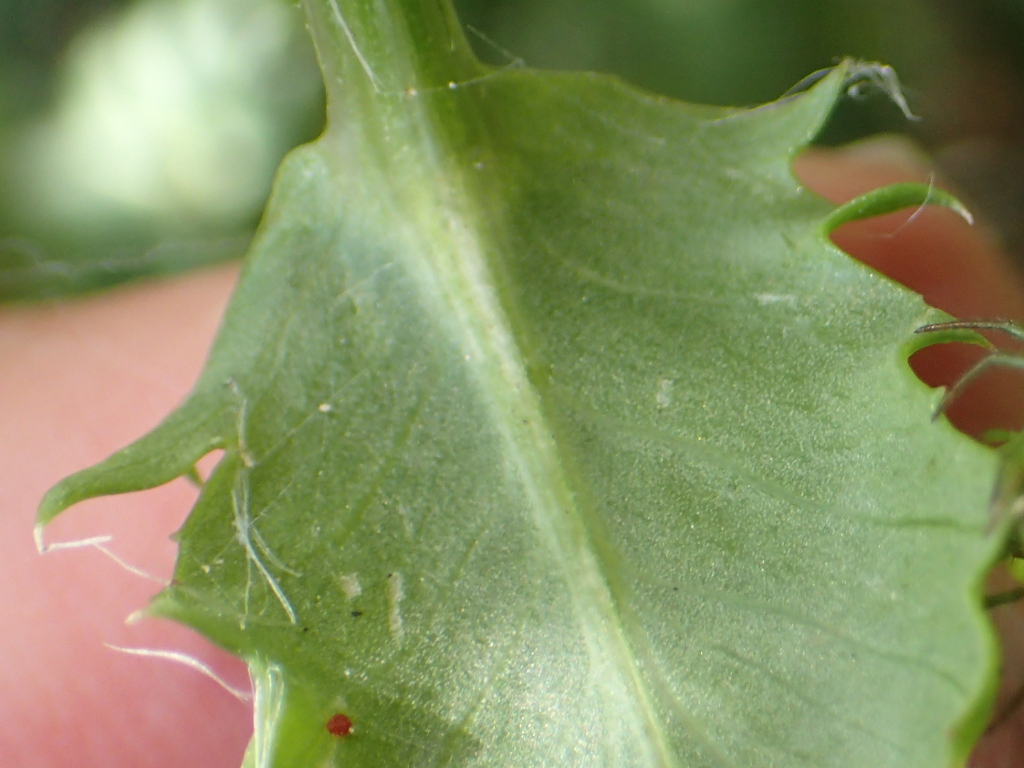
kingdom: Plantae
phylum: Tracheophyta
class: Magnoliopsida
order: Asterales
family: Asteraceae
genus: Senecio
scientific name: Senecio glastifolius
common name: Woad-leaved ragwort
